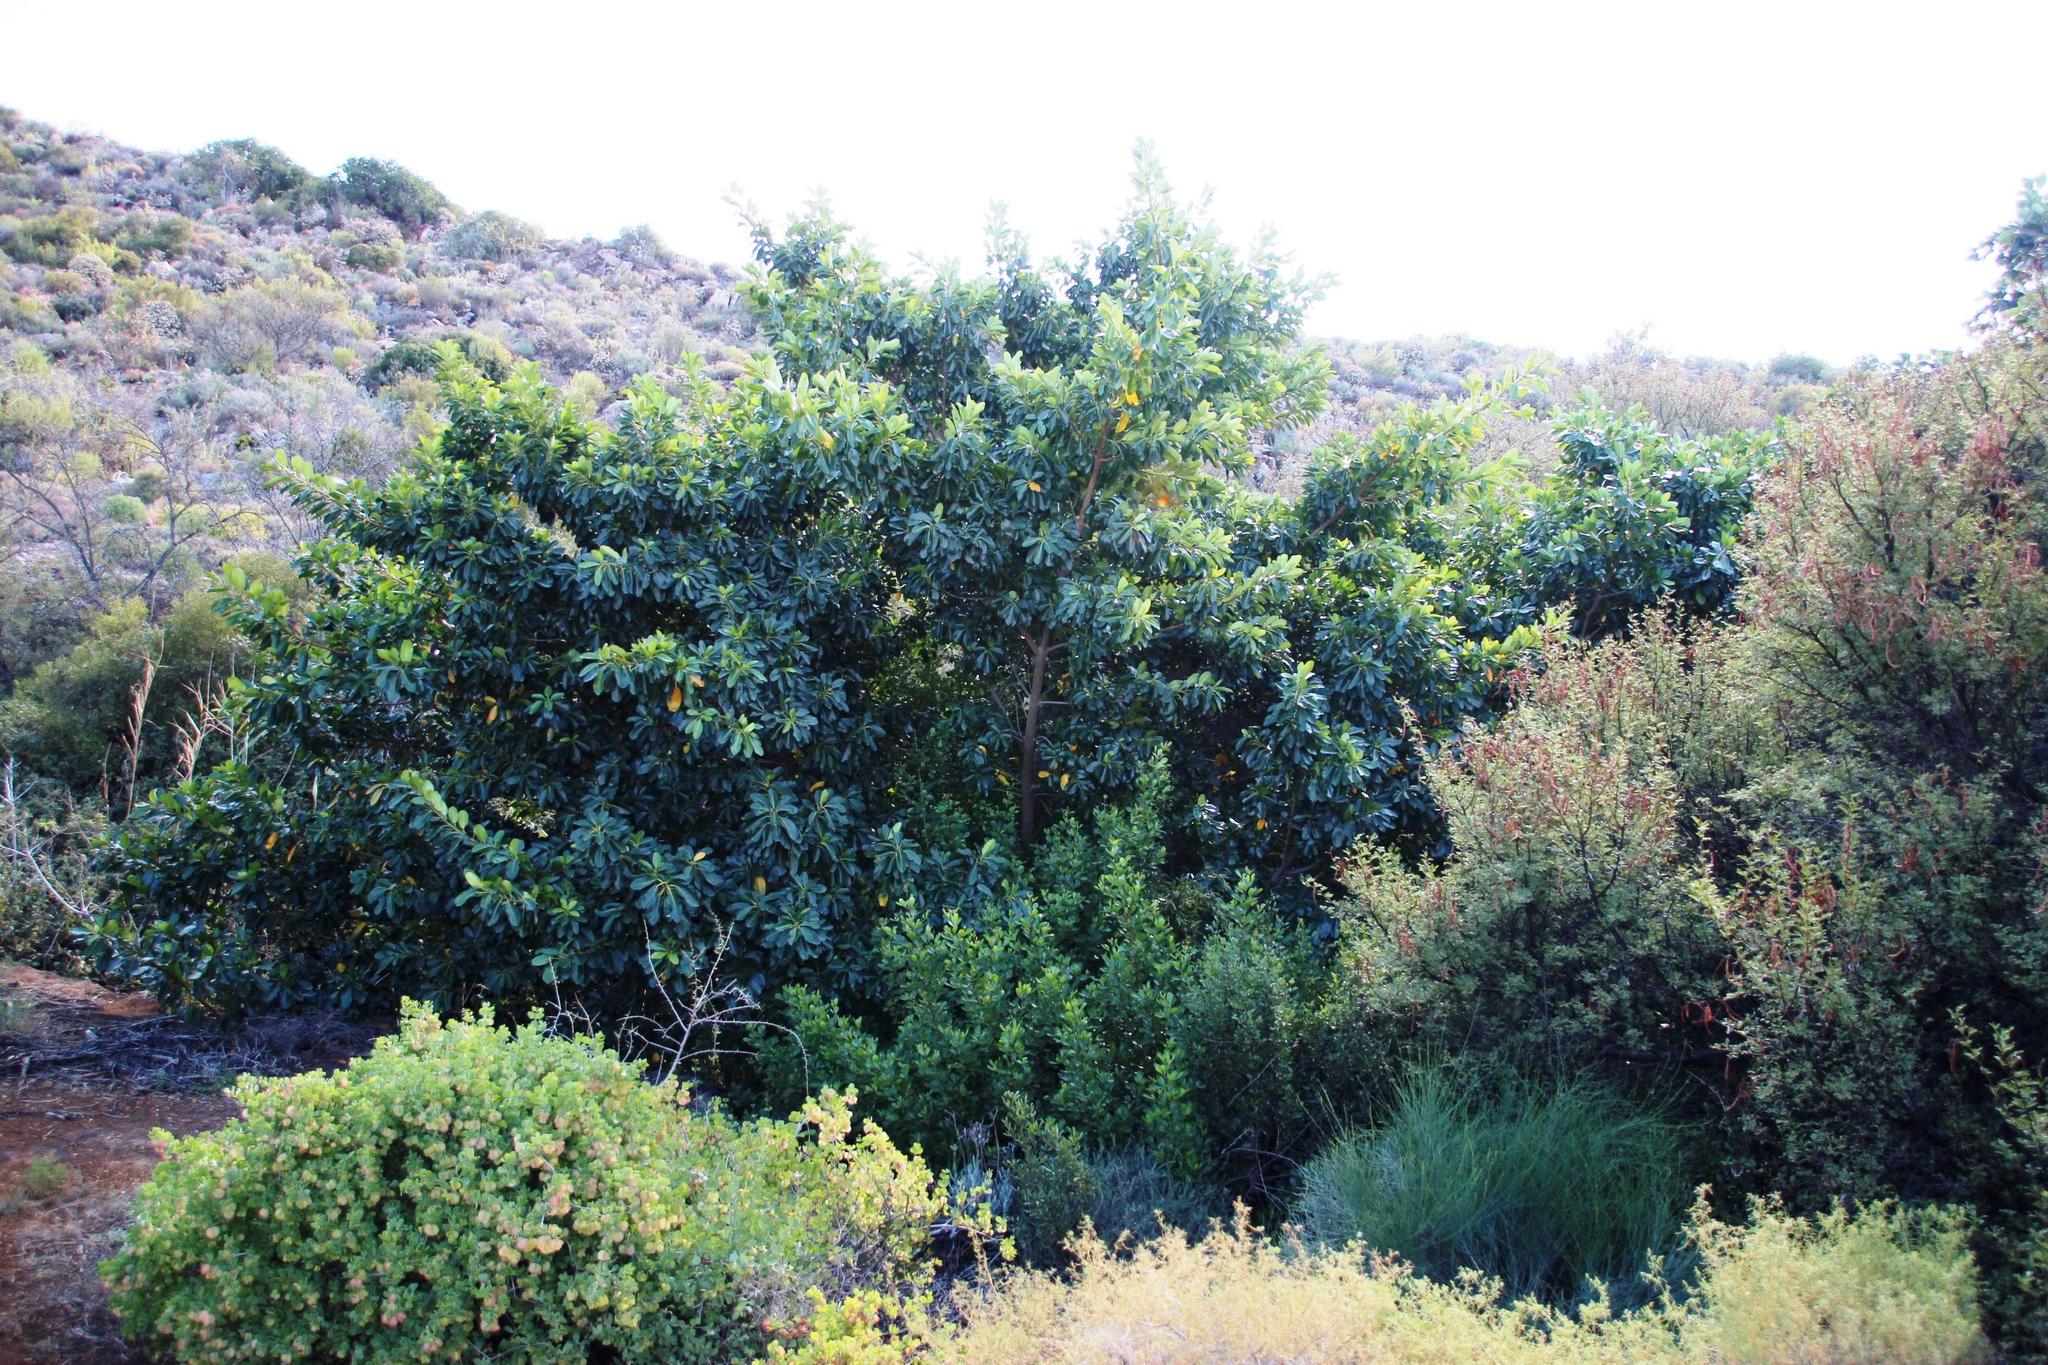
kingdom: Plantae
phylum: Tracheophyta
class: Magnoliopsida
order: Rosales
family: Moraceae
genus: Ficus
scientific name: Ficus thonningii
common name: Fig
